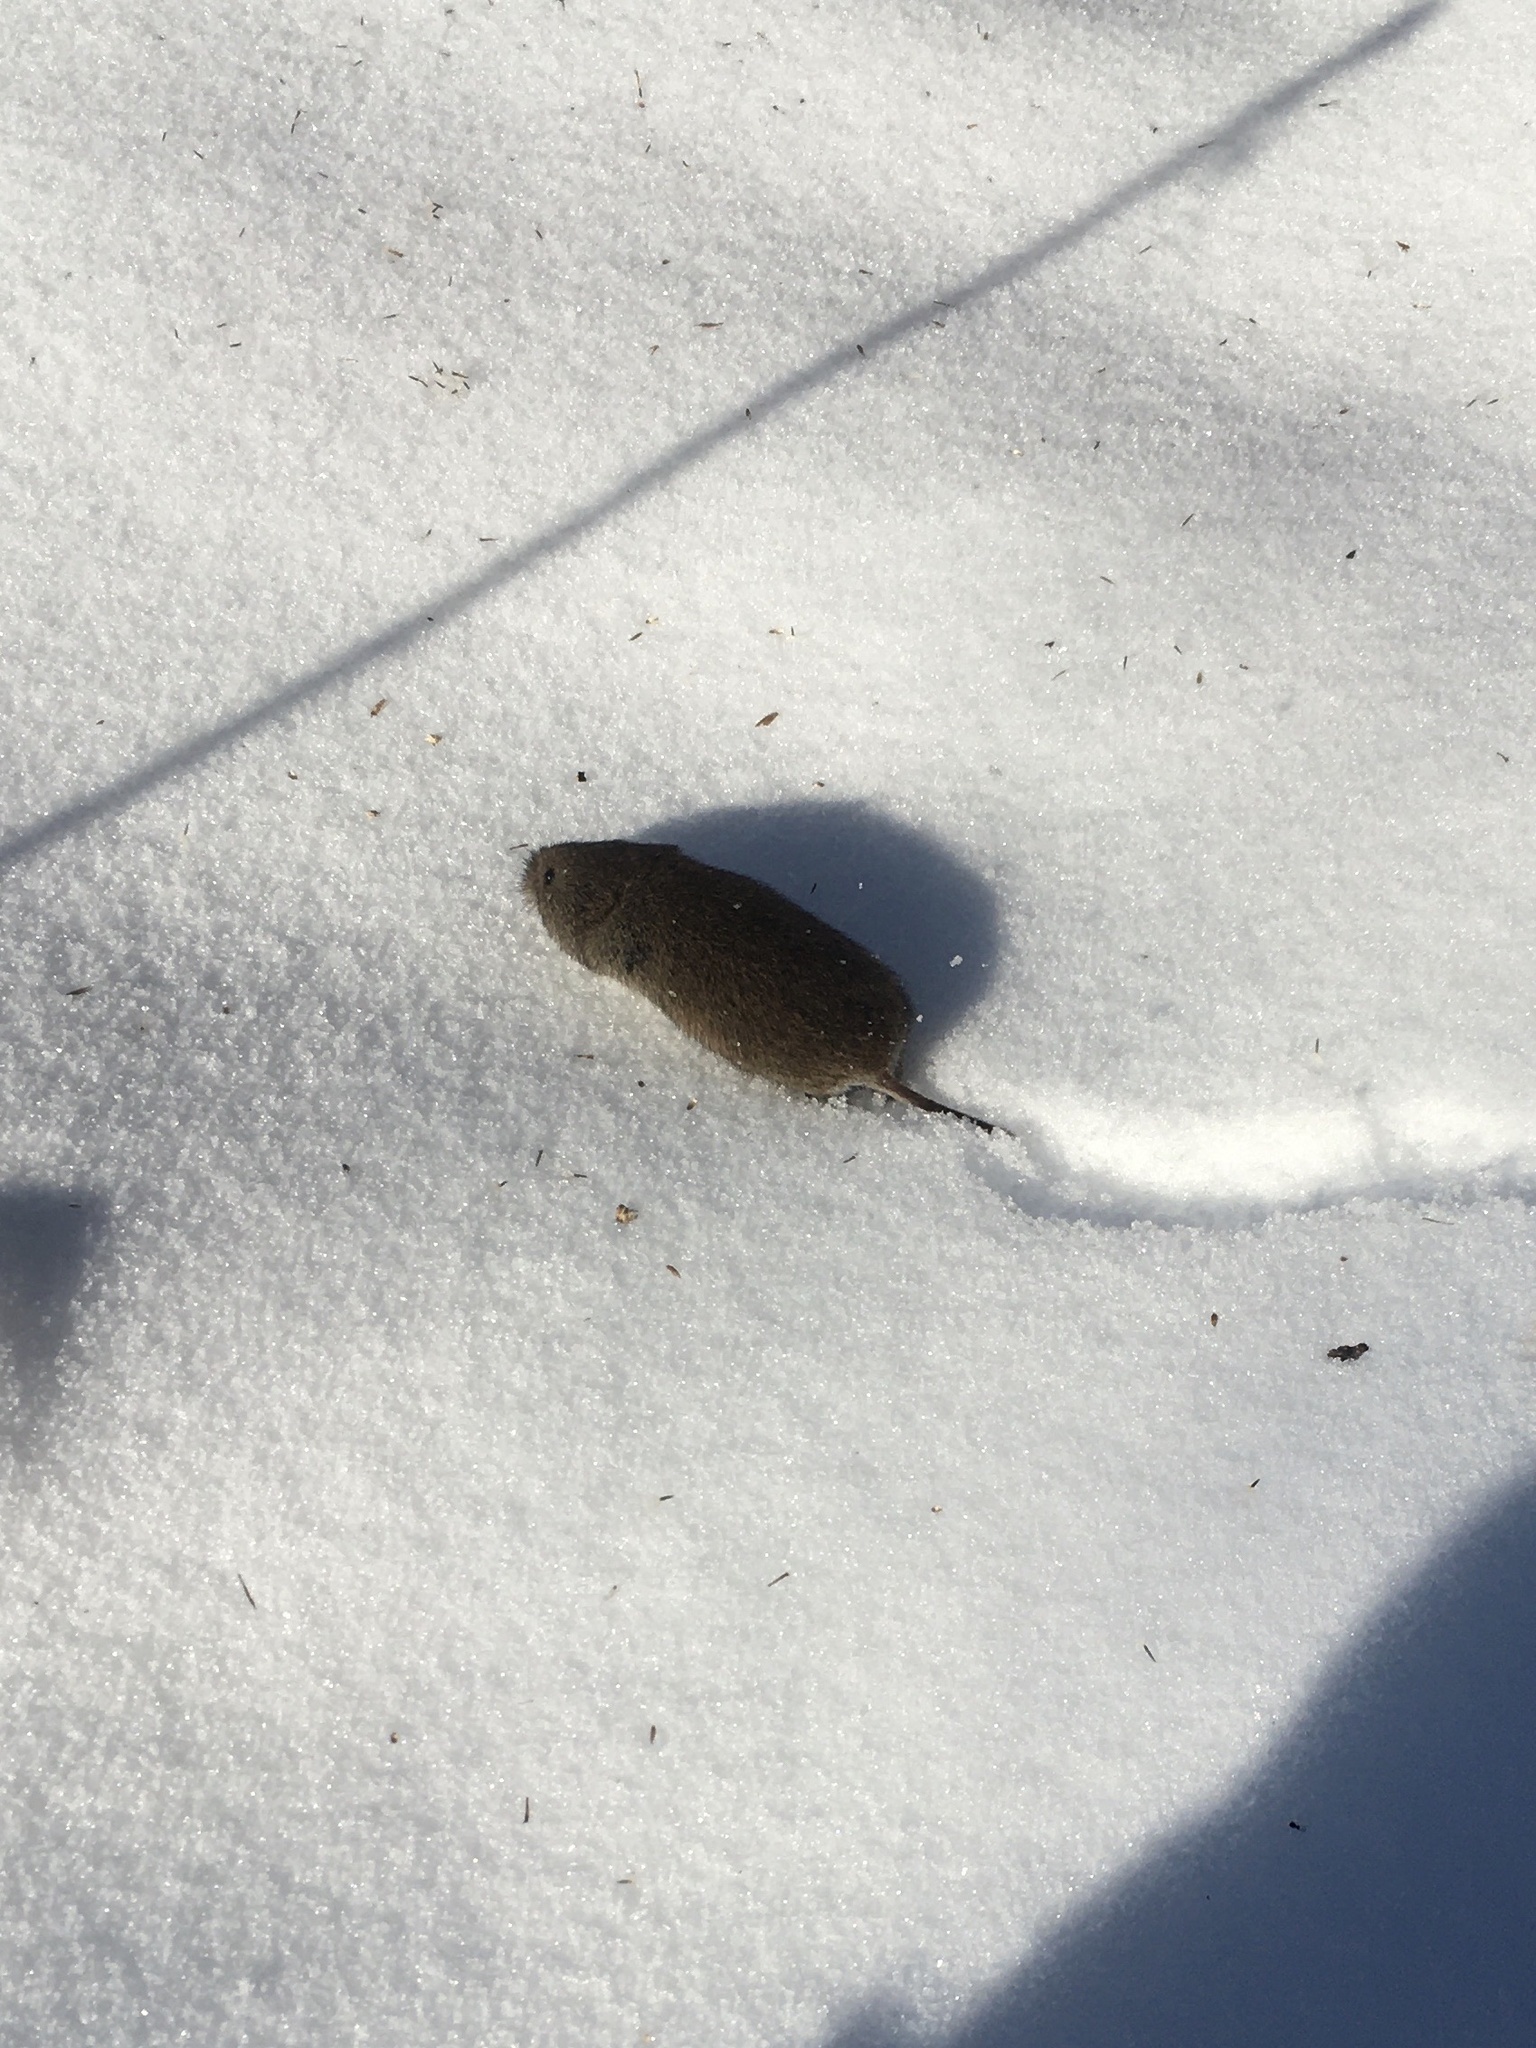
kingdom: Animalia
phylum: Chordata
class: Mammalia
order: Rodentia
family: Cricetidae
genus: Microtus
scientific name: Microtus pennsylvanicus
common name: Meadow vole
